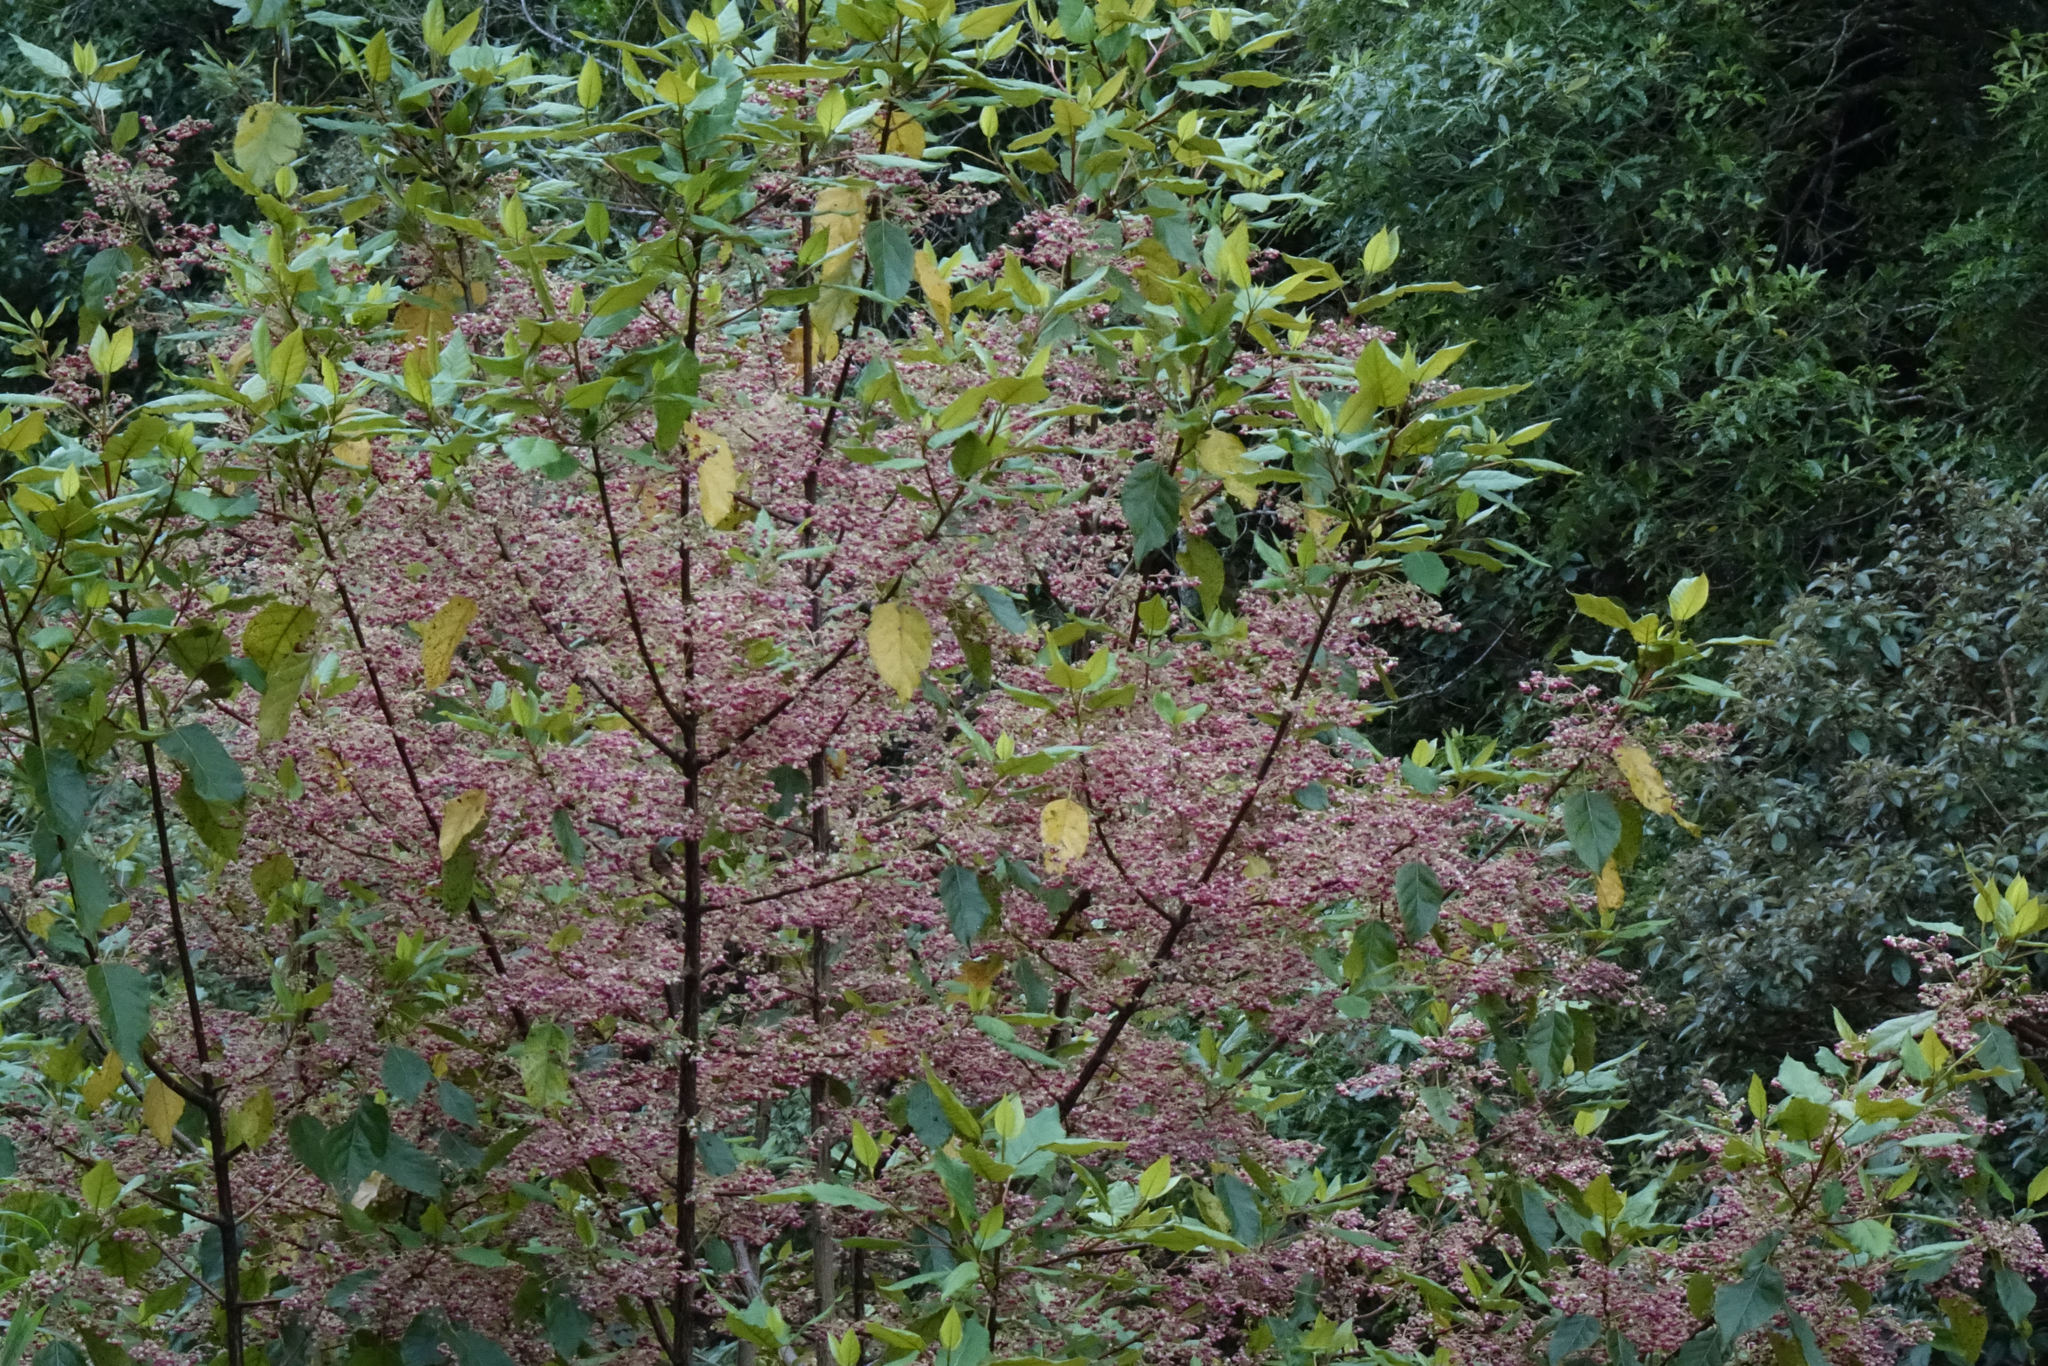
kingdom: Plantae
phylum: Tracheophyta
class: Magnoliopsida
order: Oxalidales
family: Elaeocarpaceae
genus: Aristotelia
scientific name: Aristotelia serrata
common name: New zealand wineberry
